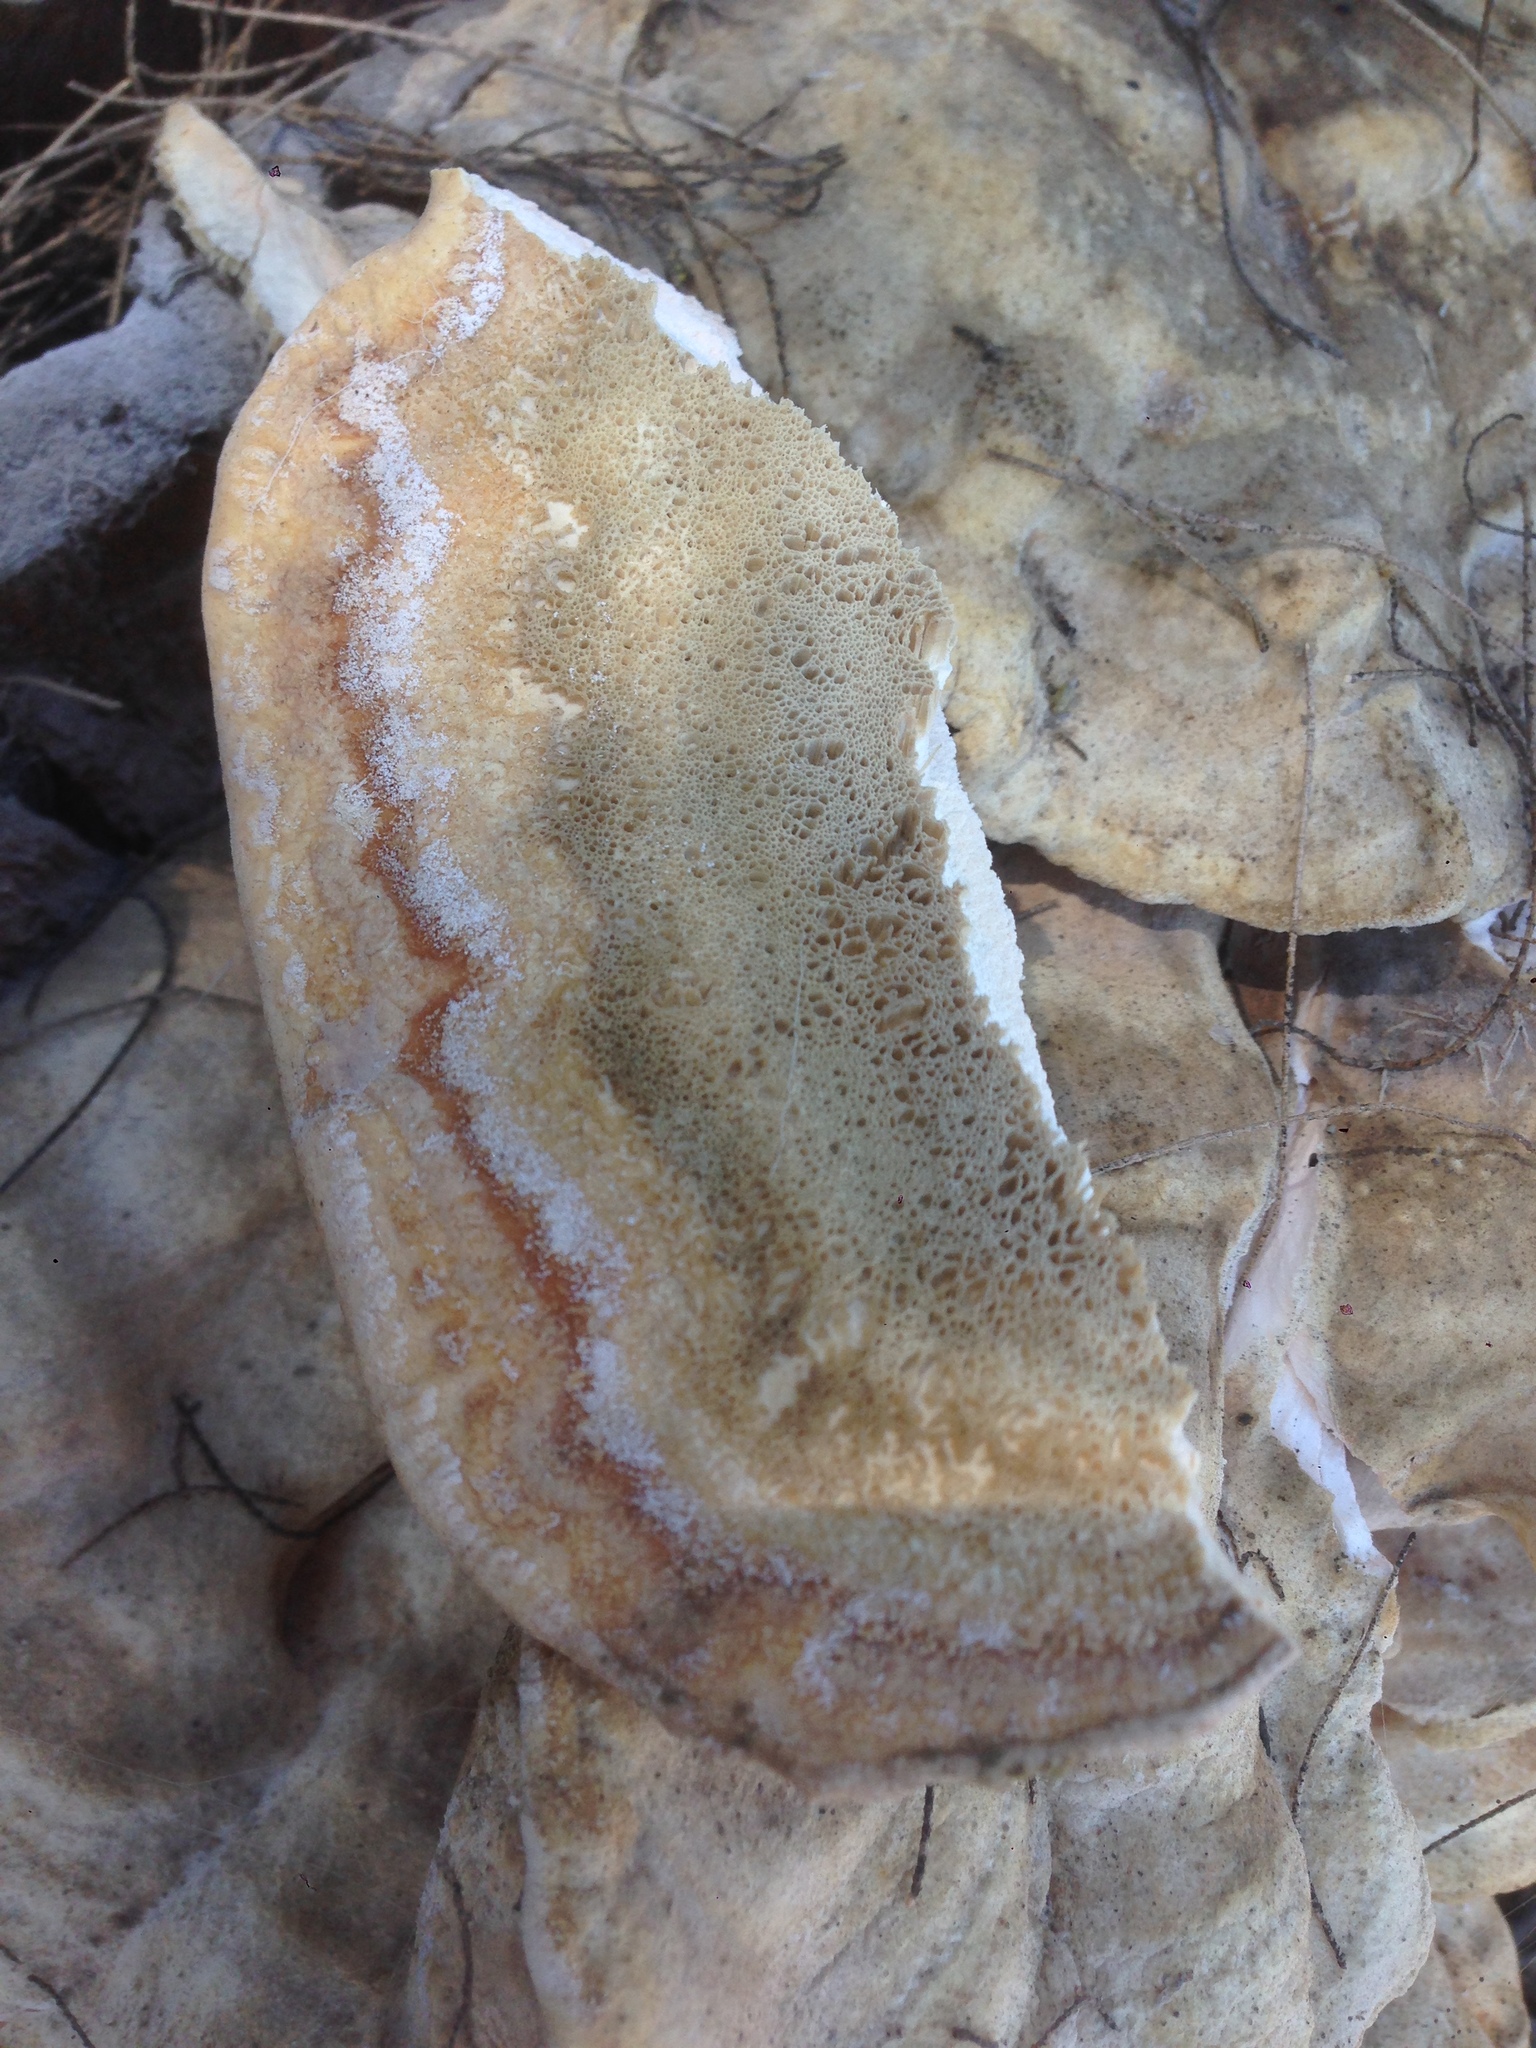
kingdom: Fungi
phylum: Basidiomycota
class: Agaricomycetes
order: Polyporales
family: Laetiporaceae
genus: Laetiporus
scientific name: Laetiporus gilbertsonii
